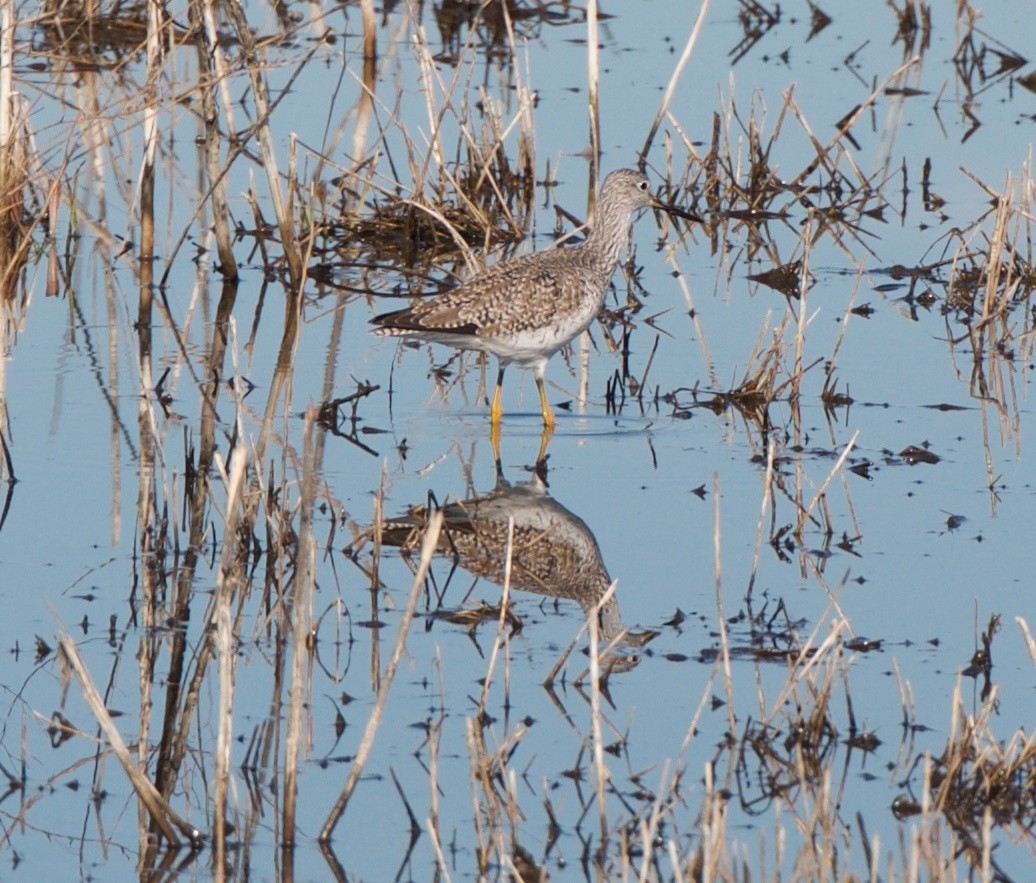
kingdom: Animalia
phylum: Chordata
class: Aves
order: Charadriiformes
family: Scolopacidae
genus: Tringa
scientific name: Tringa melanoleuca
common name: Greater yellowlegs
